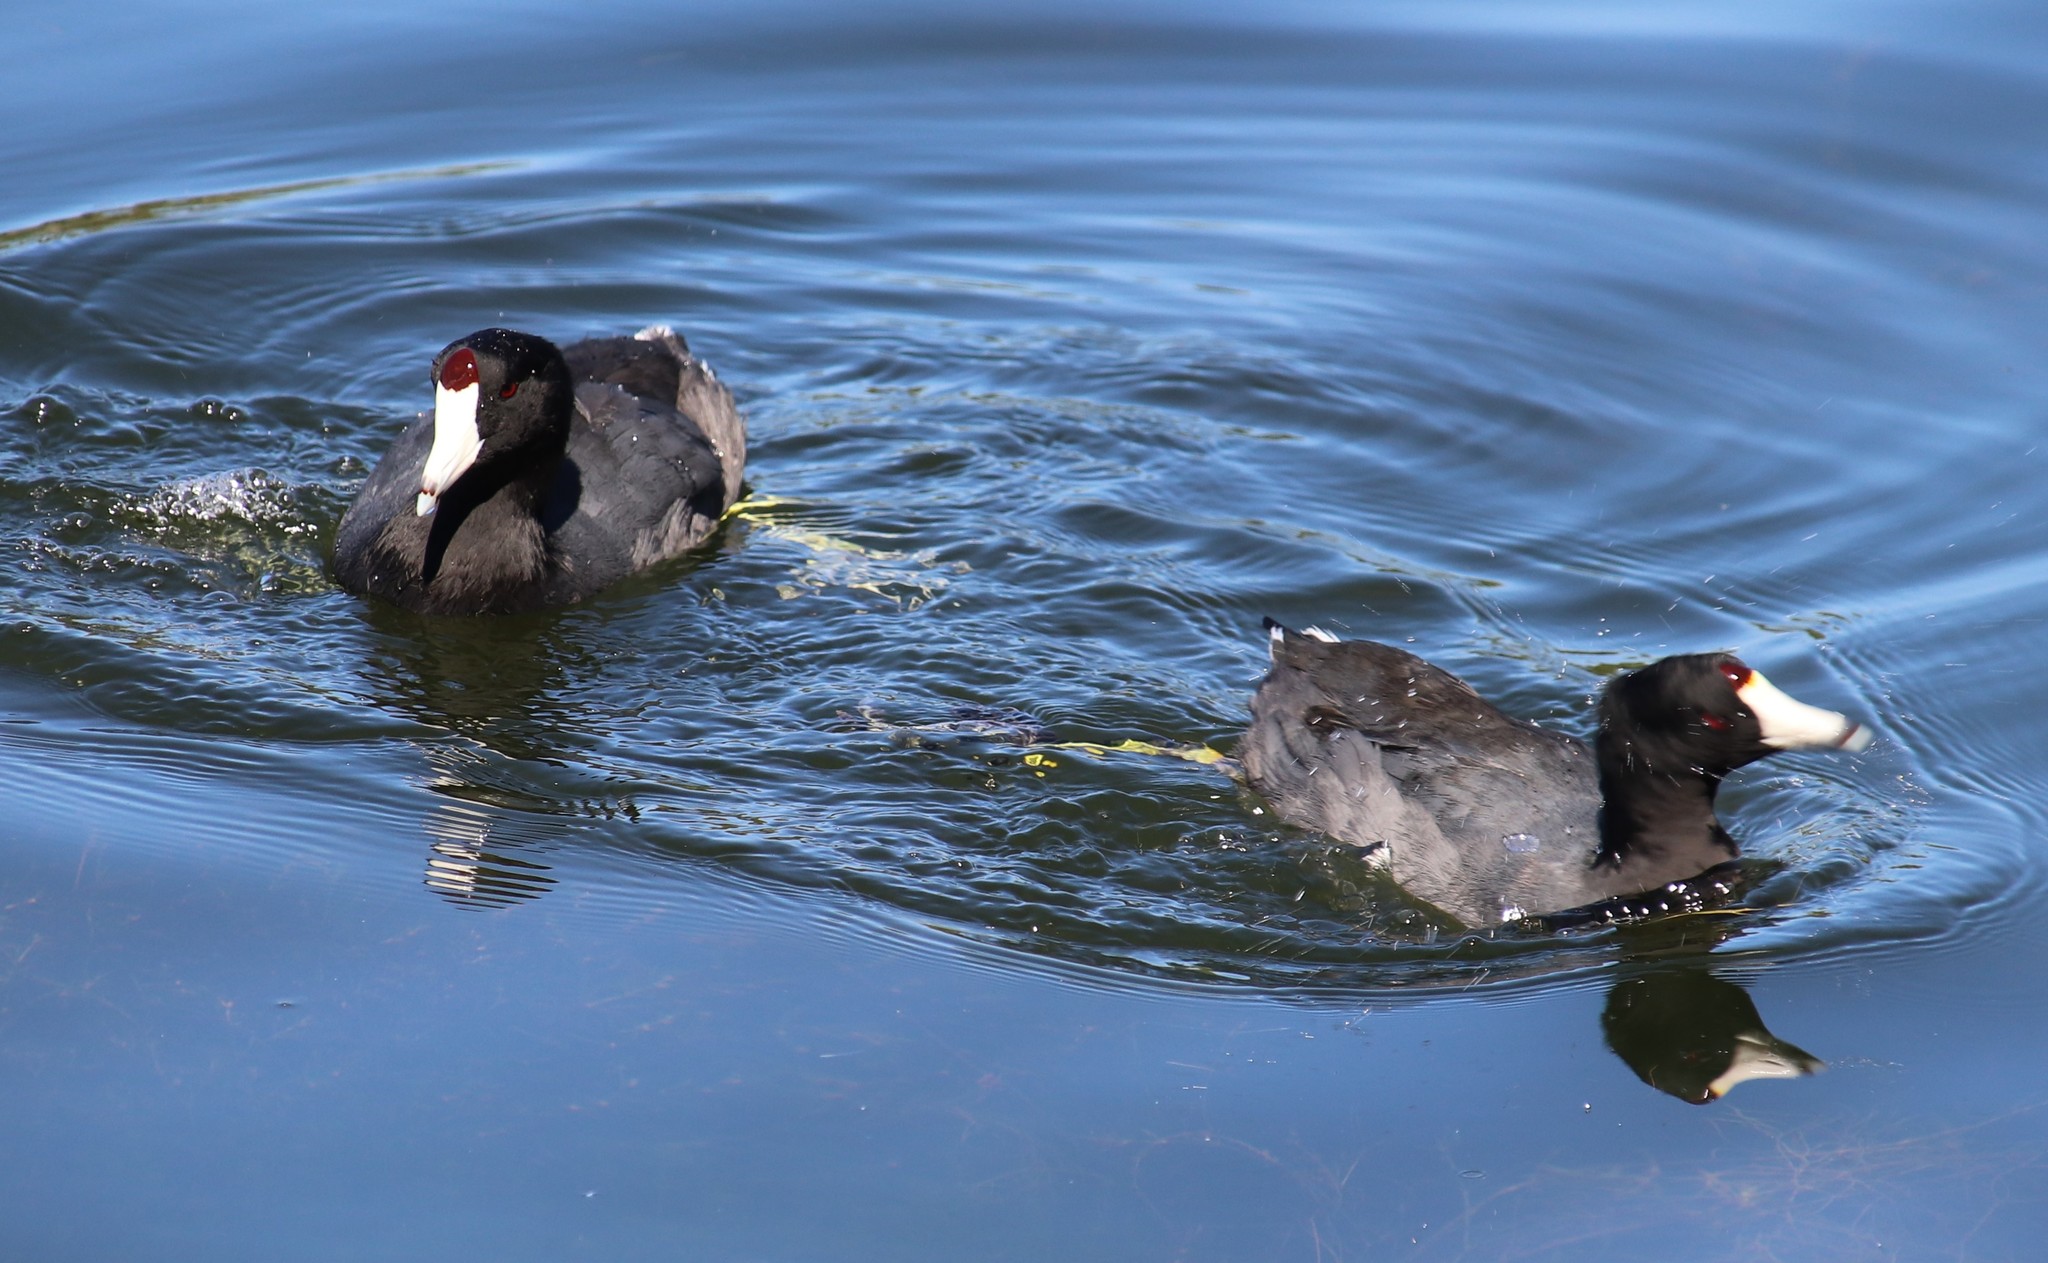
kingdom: Animalia
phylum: Chordata
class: Aves
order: Gruiformes
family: Rallidae
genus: Fulica
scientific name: Fulica americana
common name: American coot
